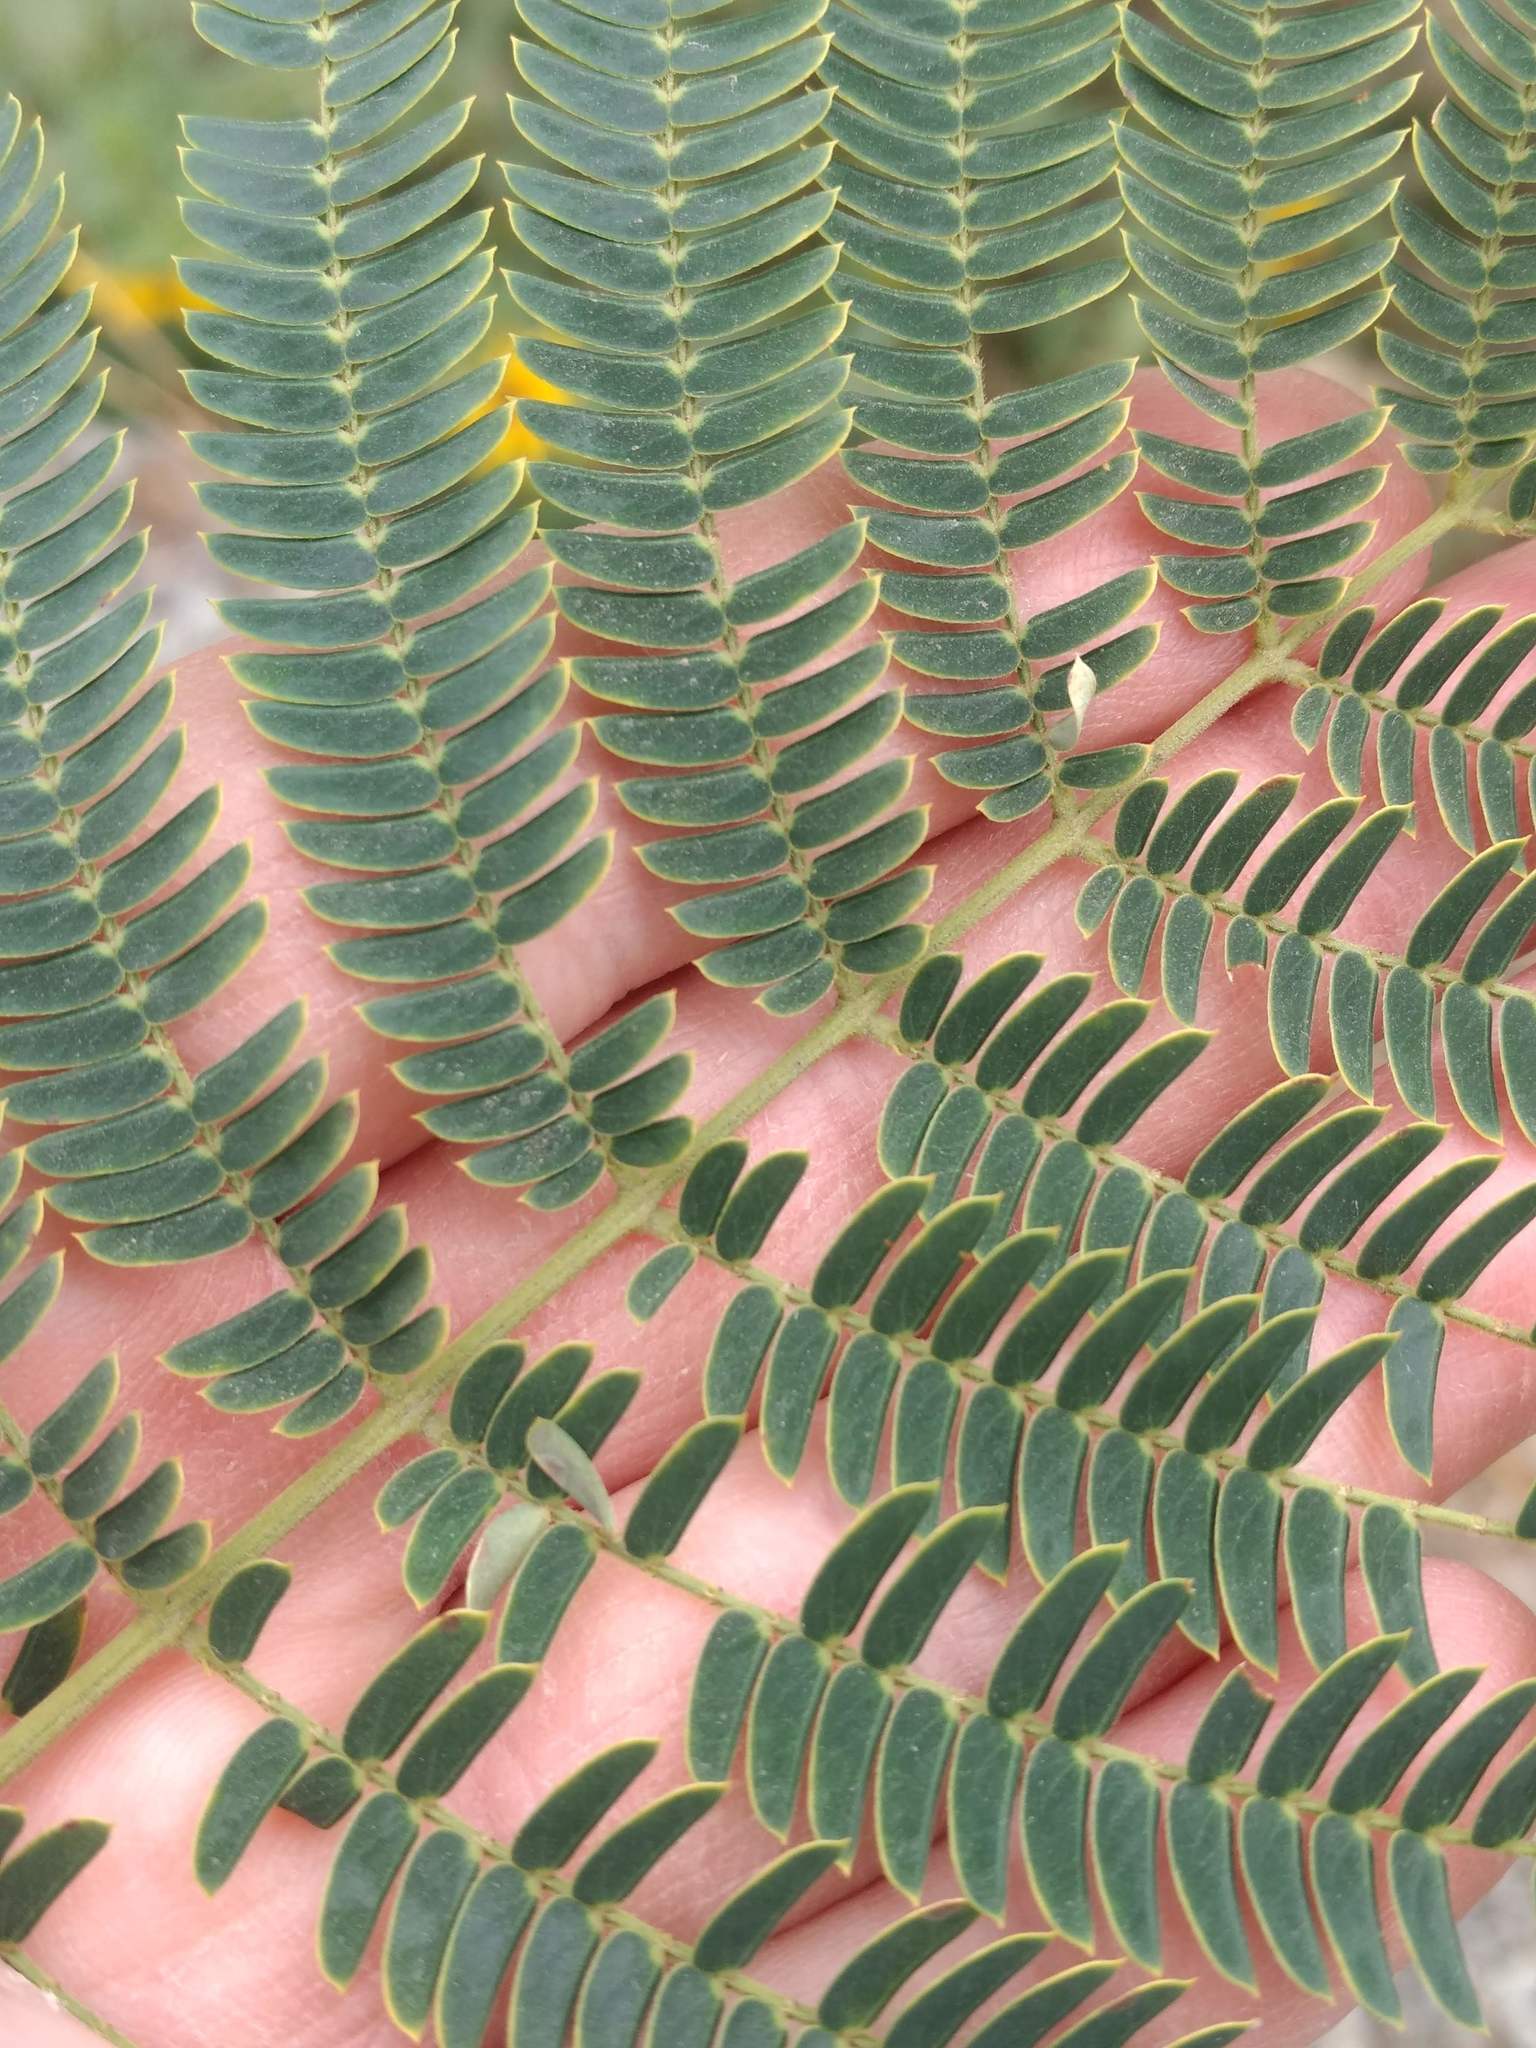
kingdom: Plantae
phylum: Tracheophyta
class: Magnoliopsida
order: Fabales
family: Fabaceae
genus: Albizia
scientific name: Albizia julibrissin
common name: Silktree
